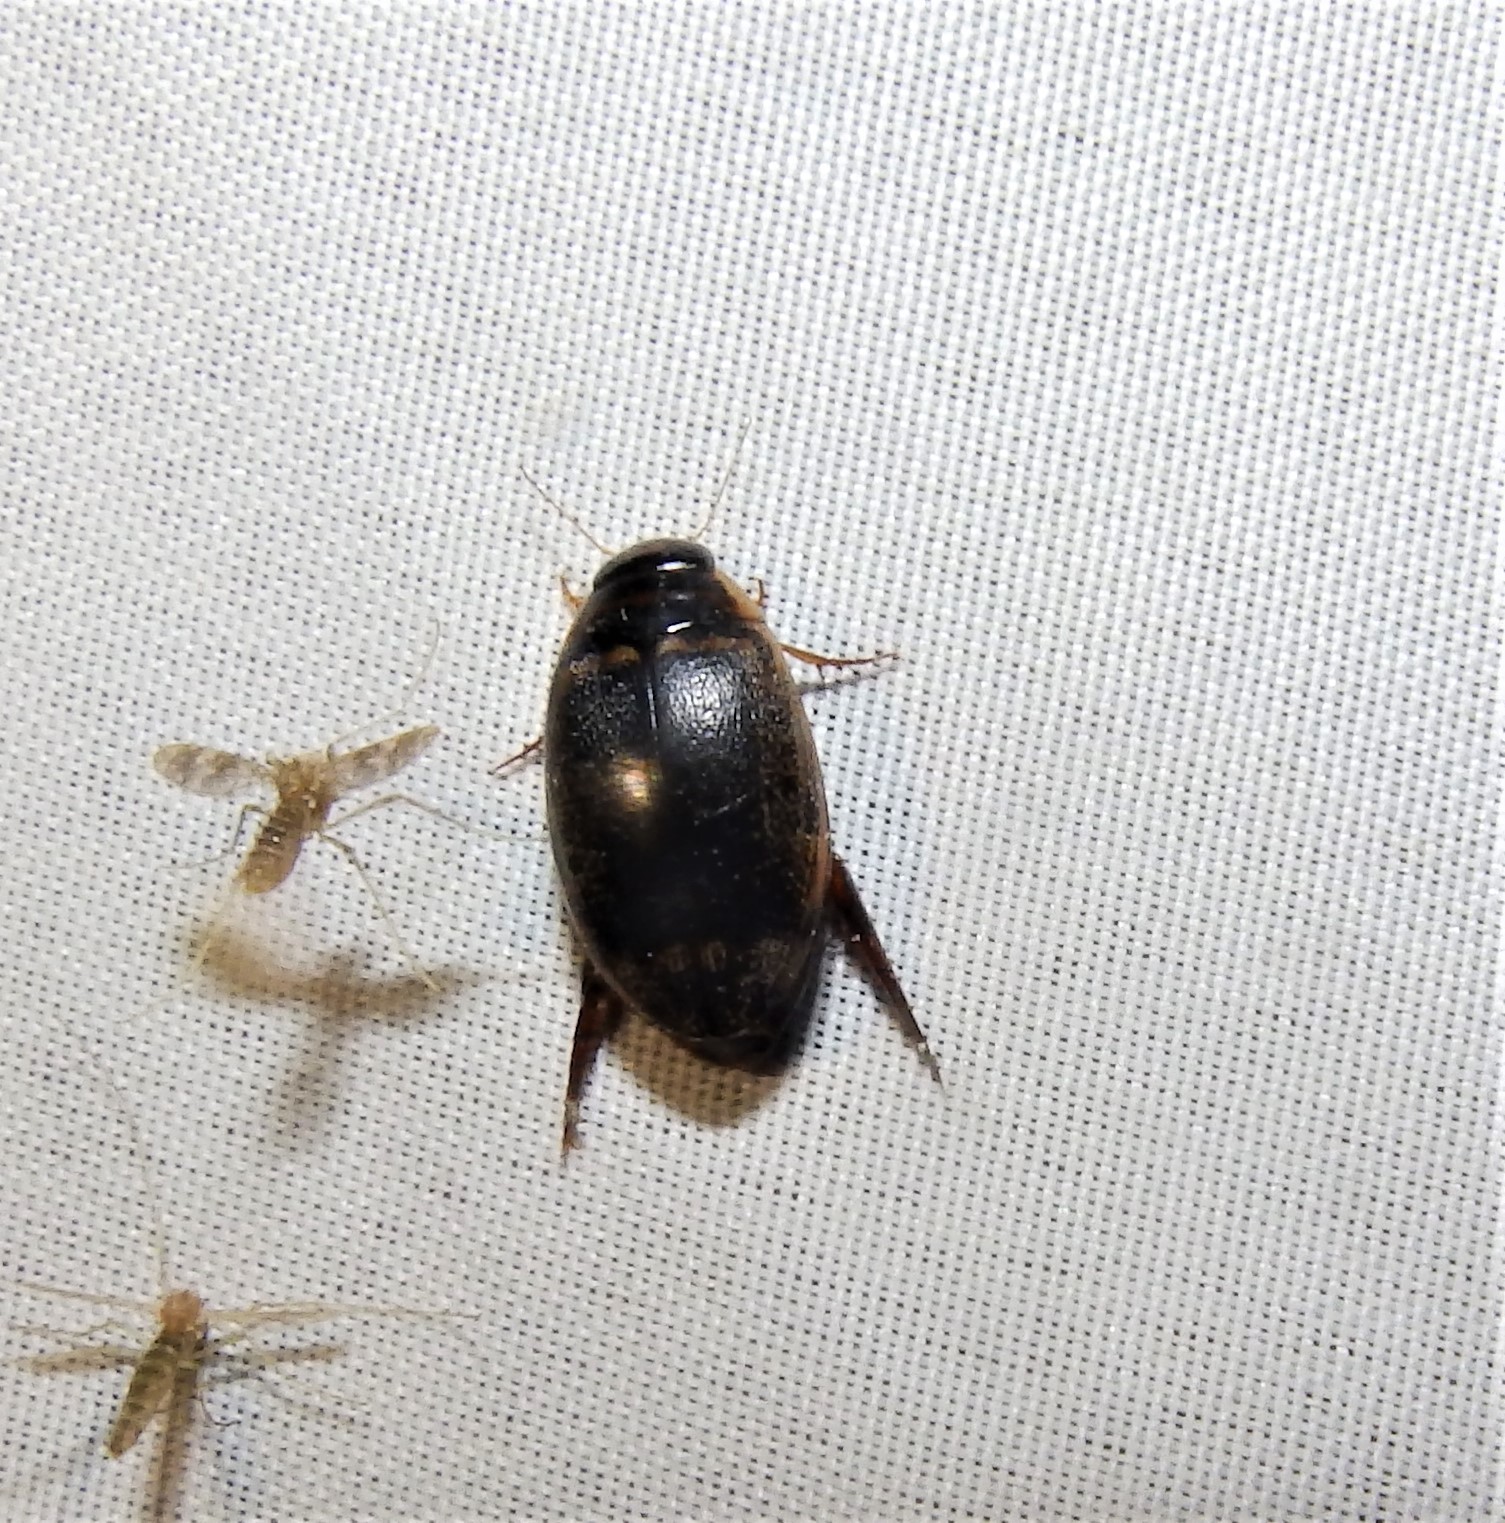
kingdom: Animalia
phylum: Arthropoda
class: Insecta
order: Coleoptera
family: Dytiscidae
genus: Thermonectus
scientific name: Thermonectus basillaris
